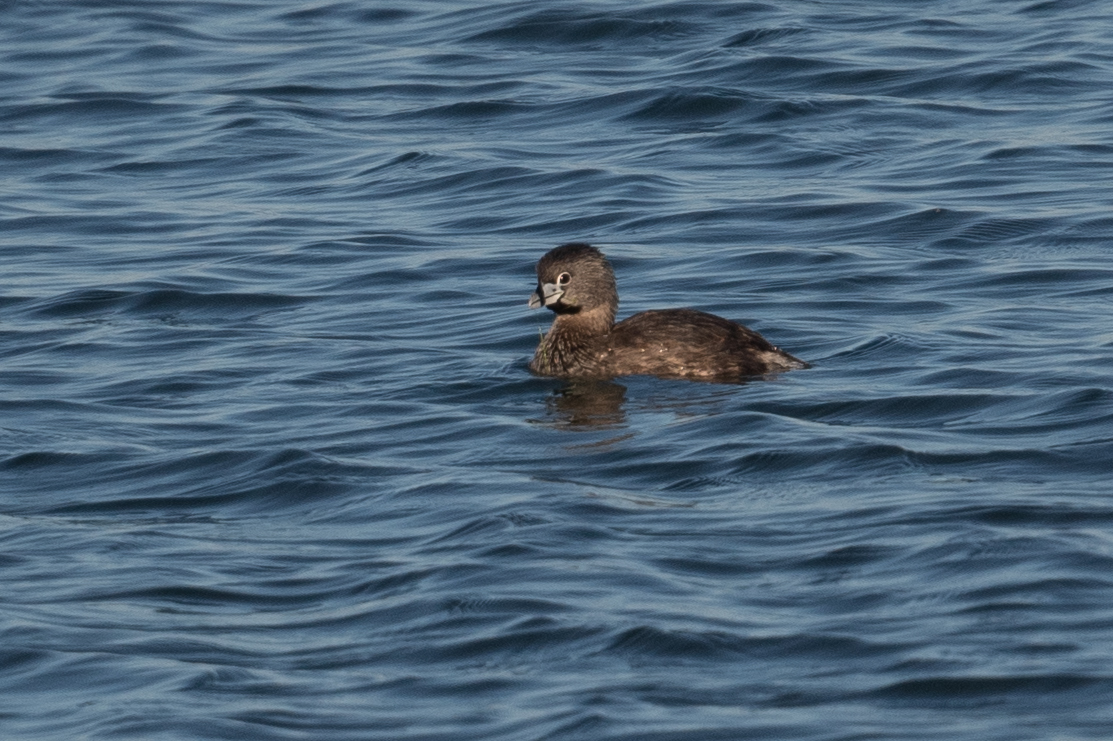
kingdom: Animalia
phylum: Chordata
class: Aves
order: Podicipediformes
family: Podicipedidae
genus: Podilymbus
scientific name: Podilymbus podiceps
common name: Pied-billed grebe
